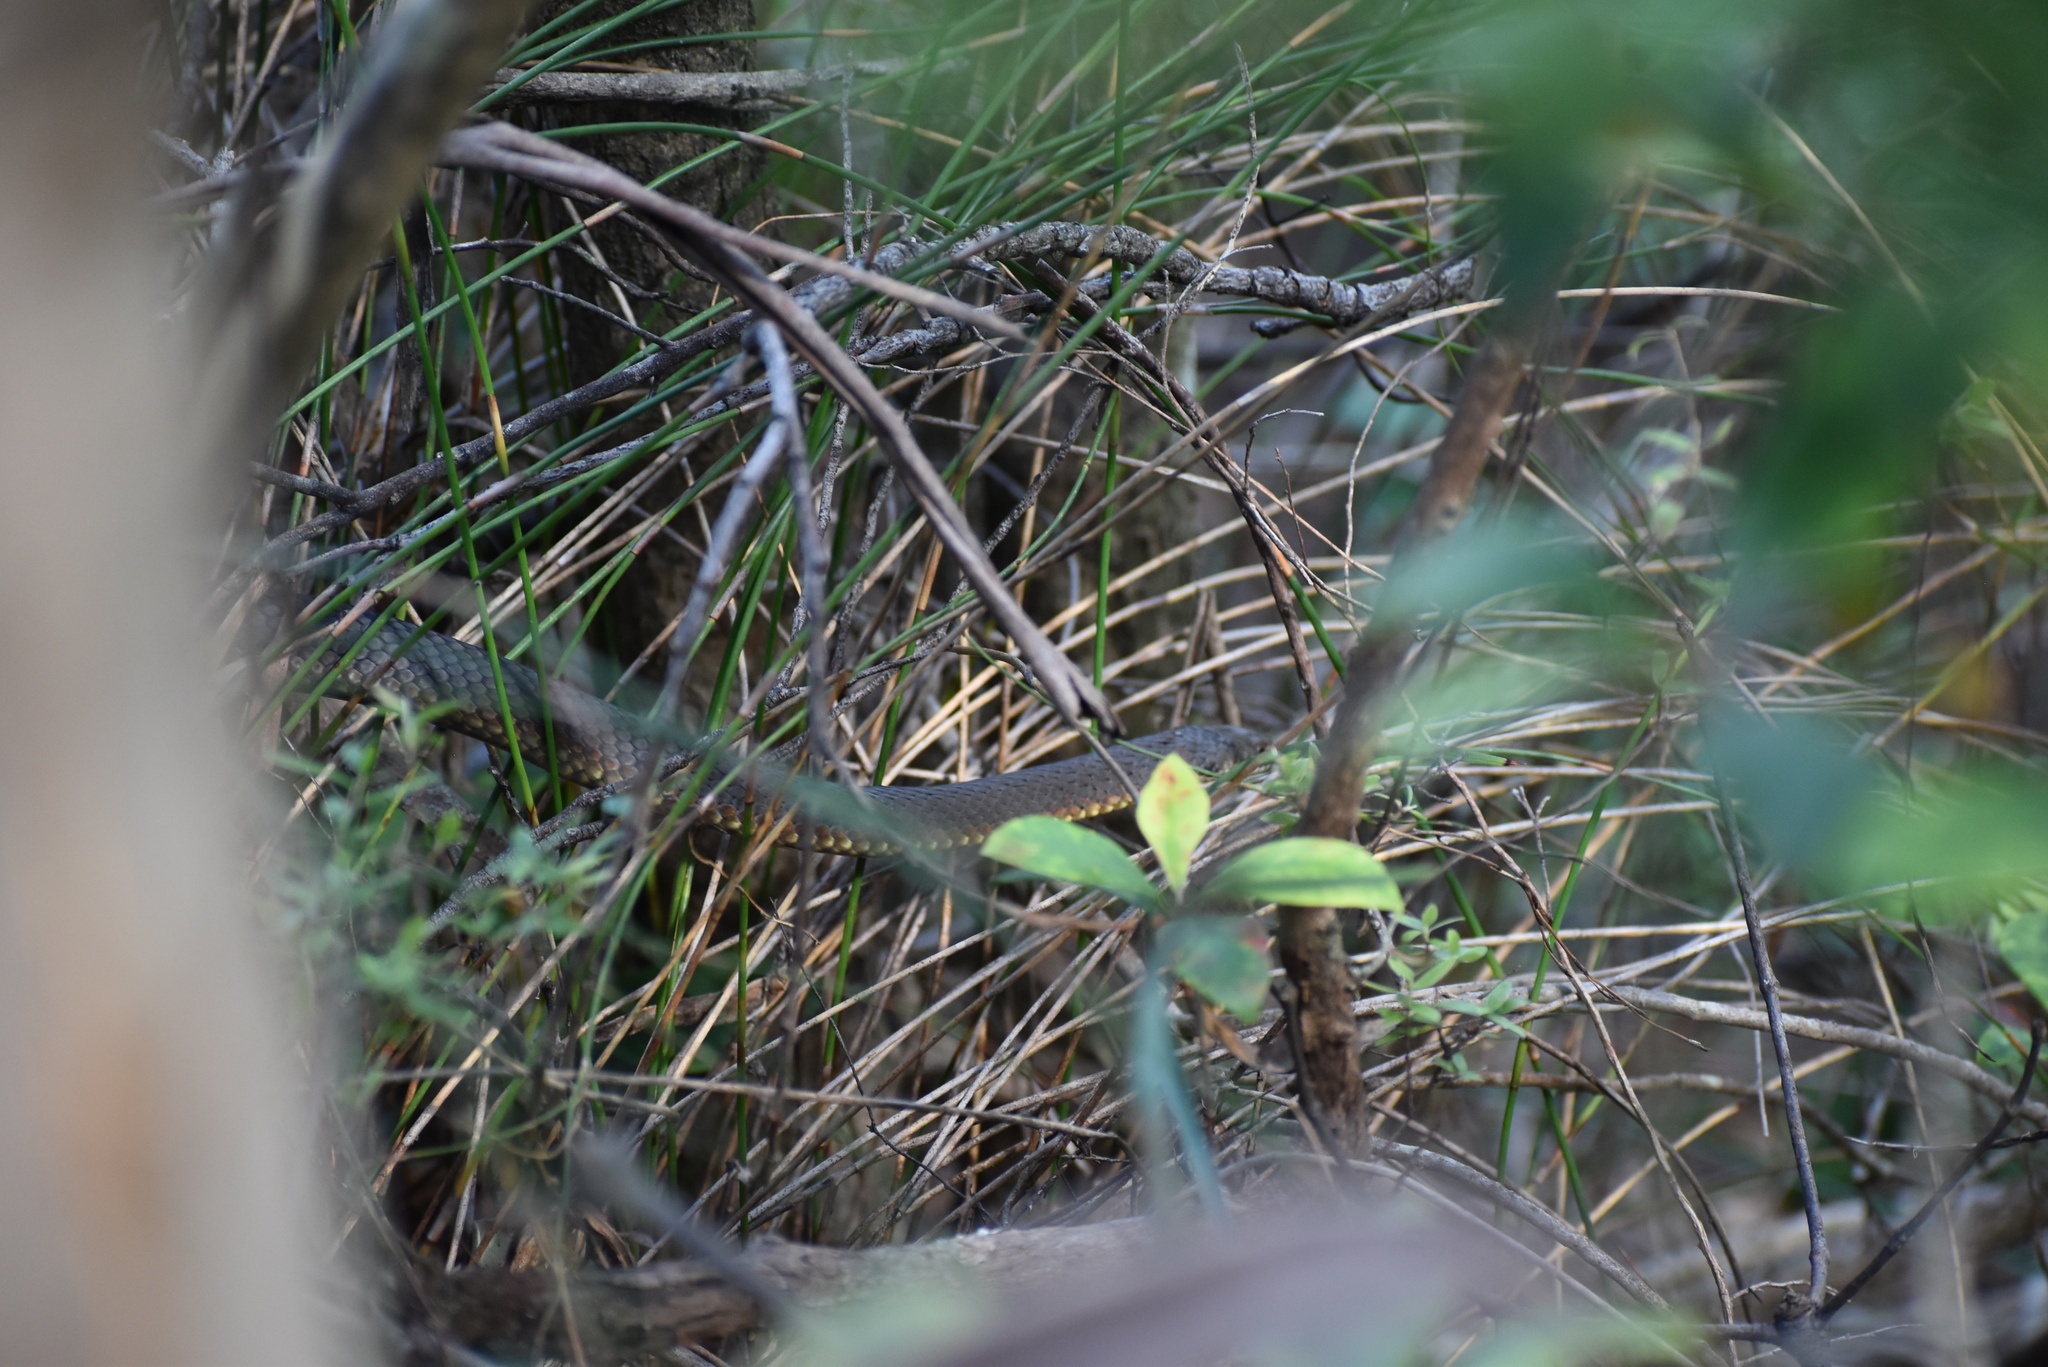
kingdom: Animalia
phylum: Chordata
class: Squamata
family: Elapidae
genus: Austrelaps
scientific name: Austrelaps ramsayi
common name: Highlands copperhead
